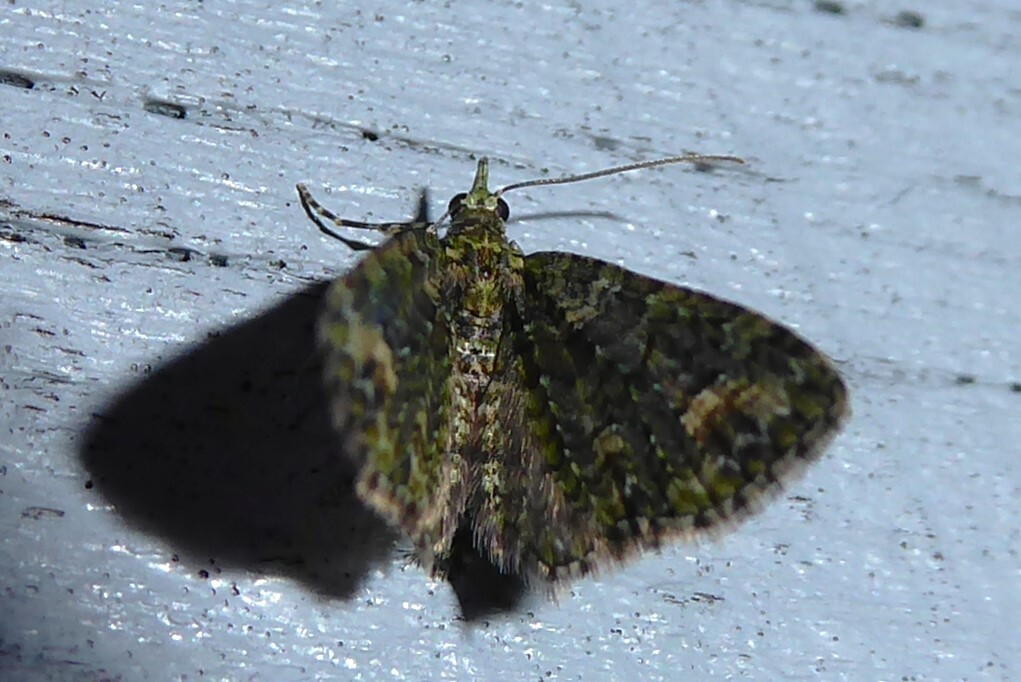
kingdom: Animalia
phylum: Arthropoda
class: Insecta
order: Lepidoptera
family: Geometridae
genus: Idaea
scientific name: Idaea mutanda
